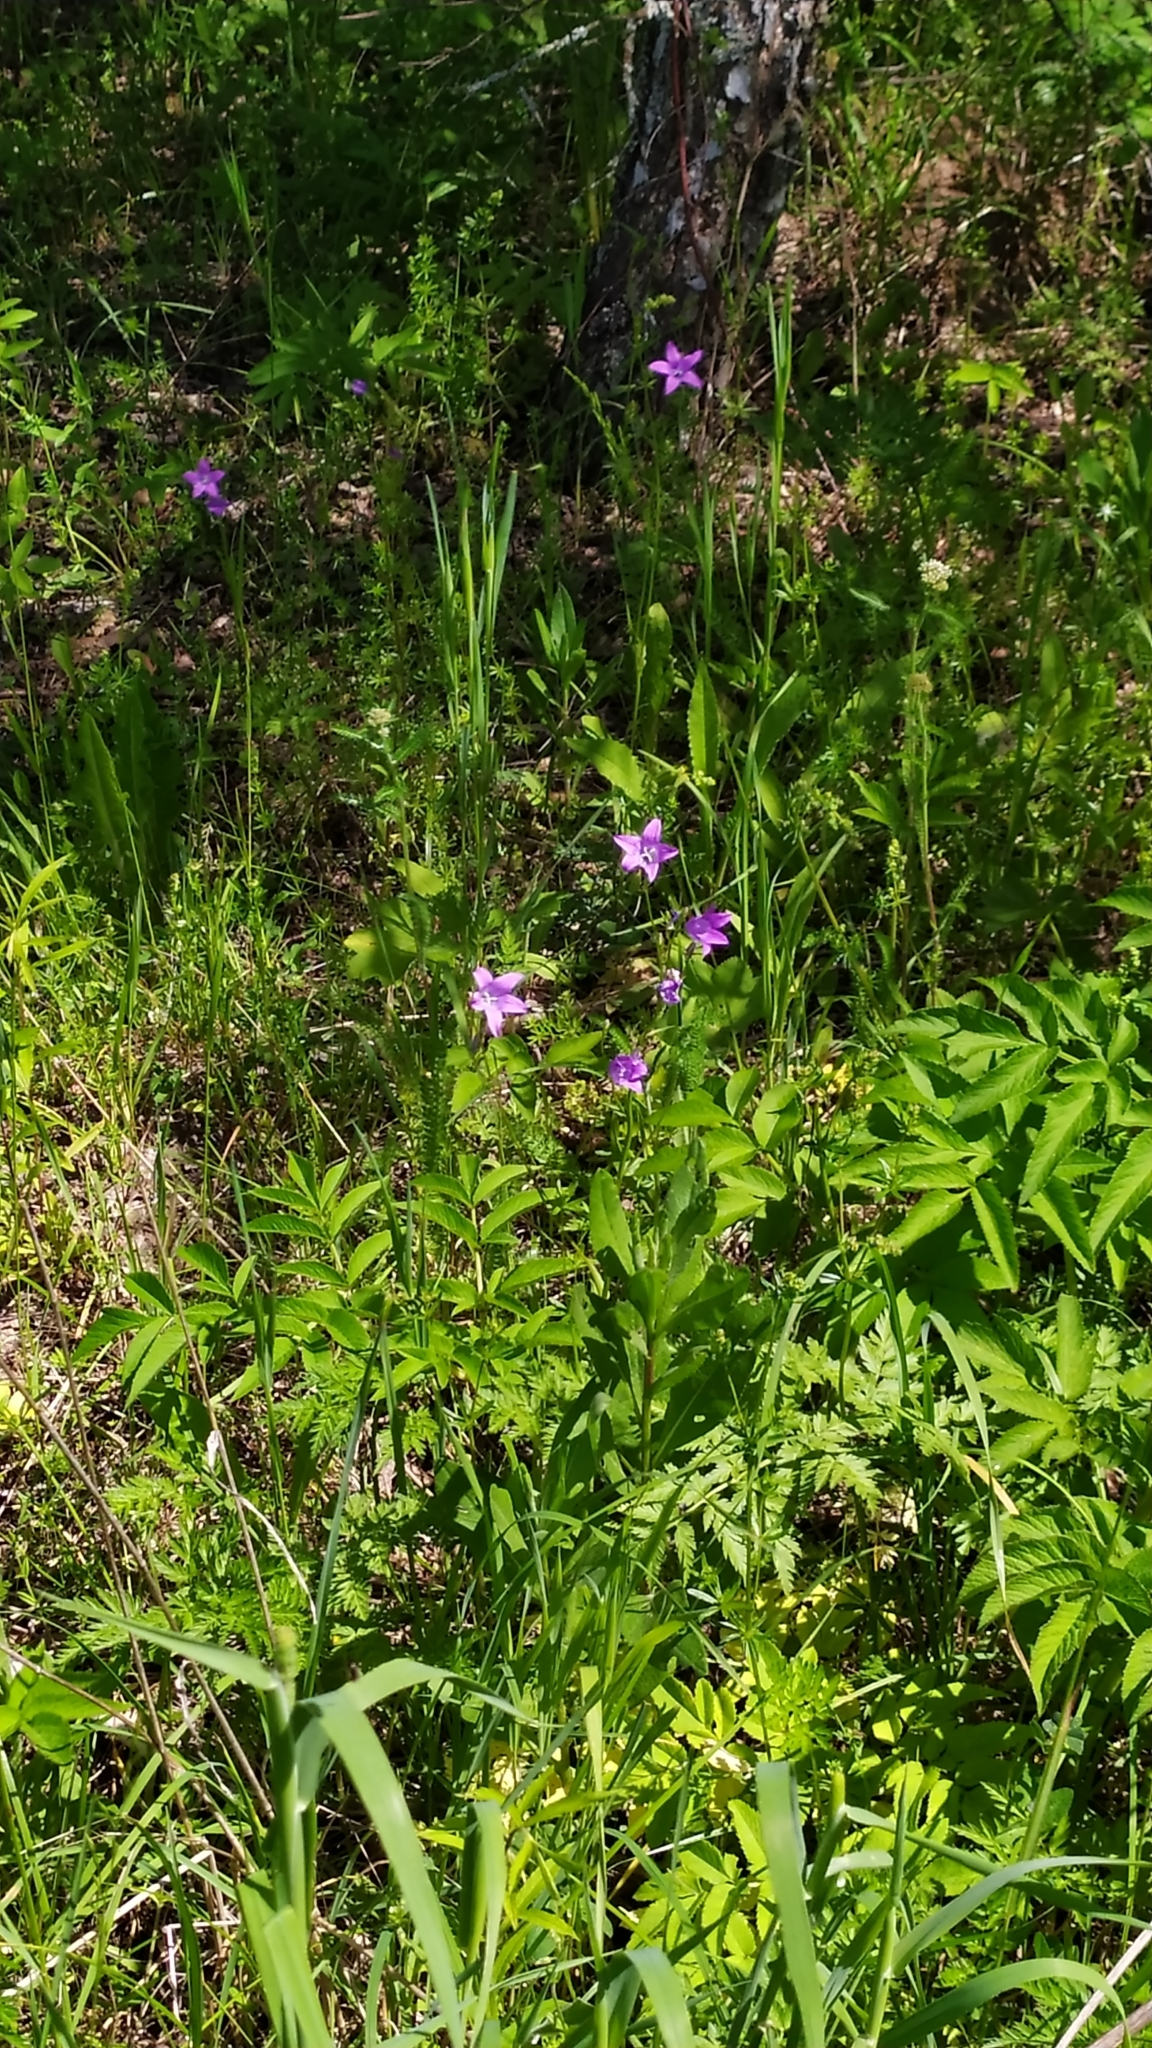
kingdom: Plantae
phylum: Tracheophyta
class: Magnoliopsida
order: Asterales
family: Campanulaceae
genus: Campanula
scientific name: Campanula patula
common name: Spreading bellflower
